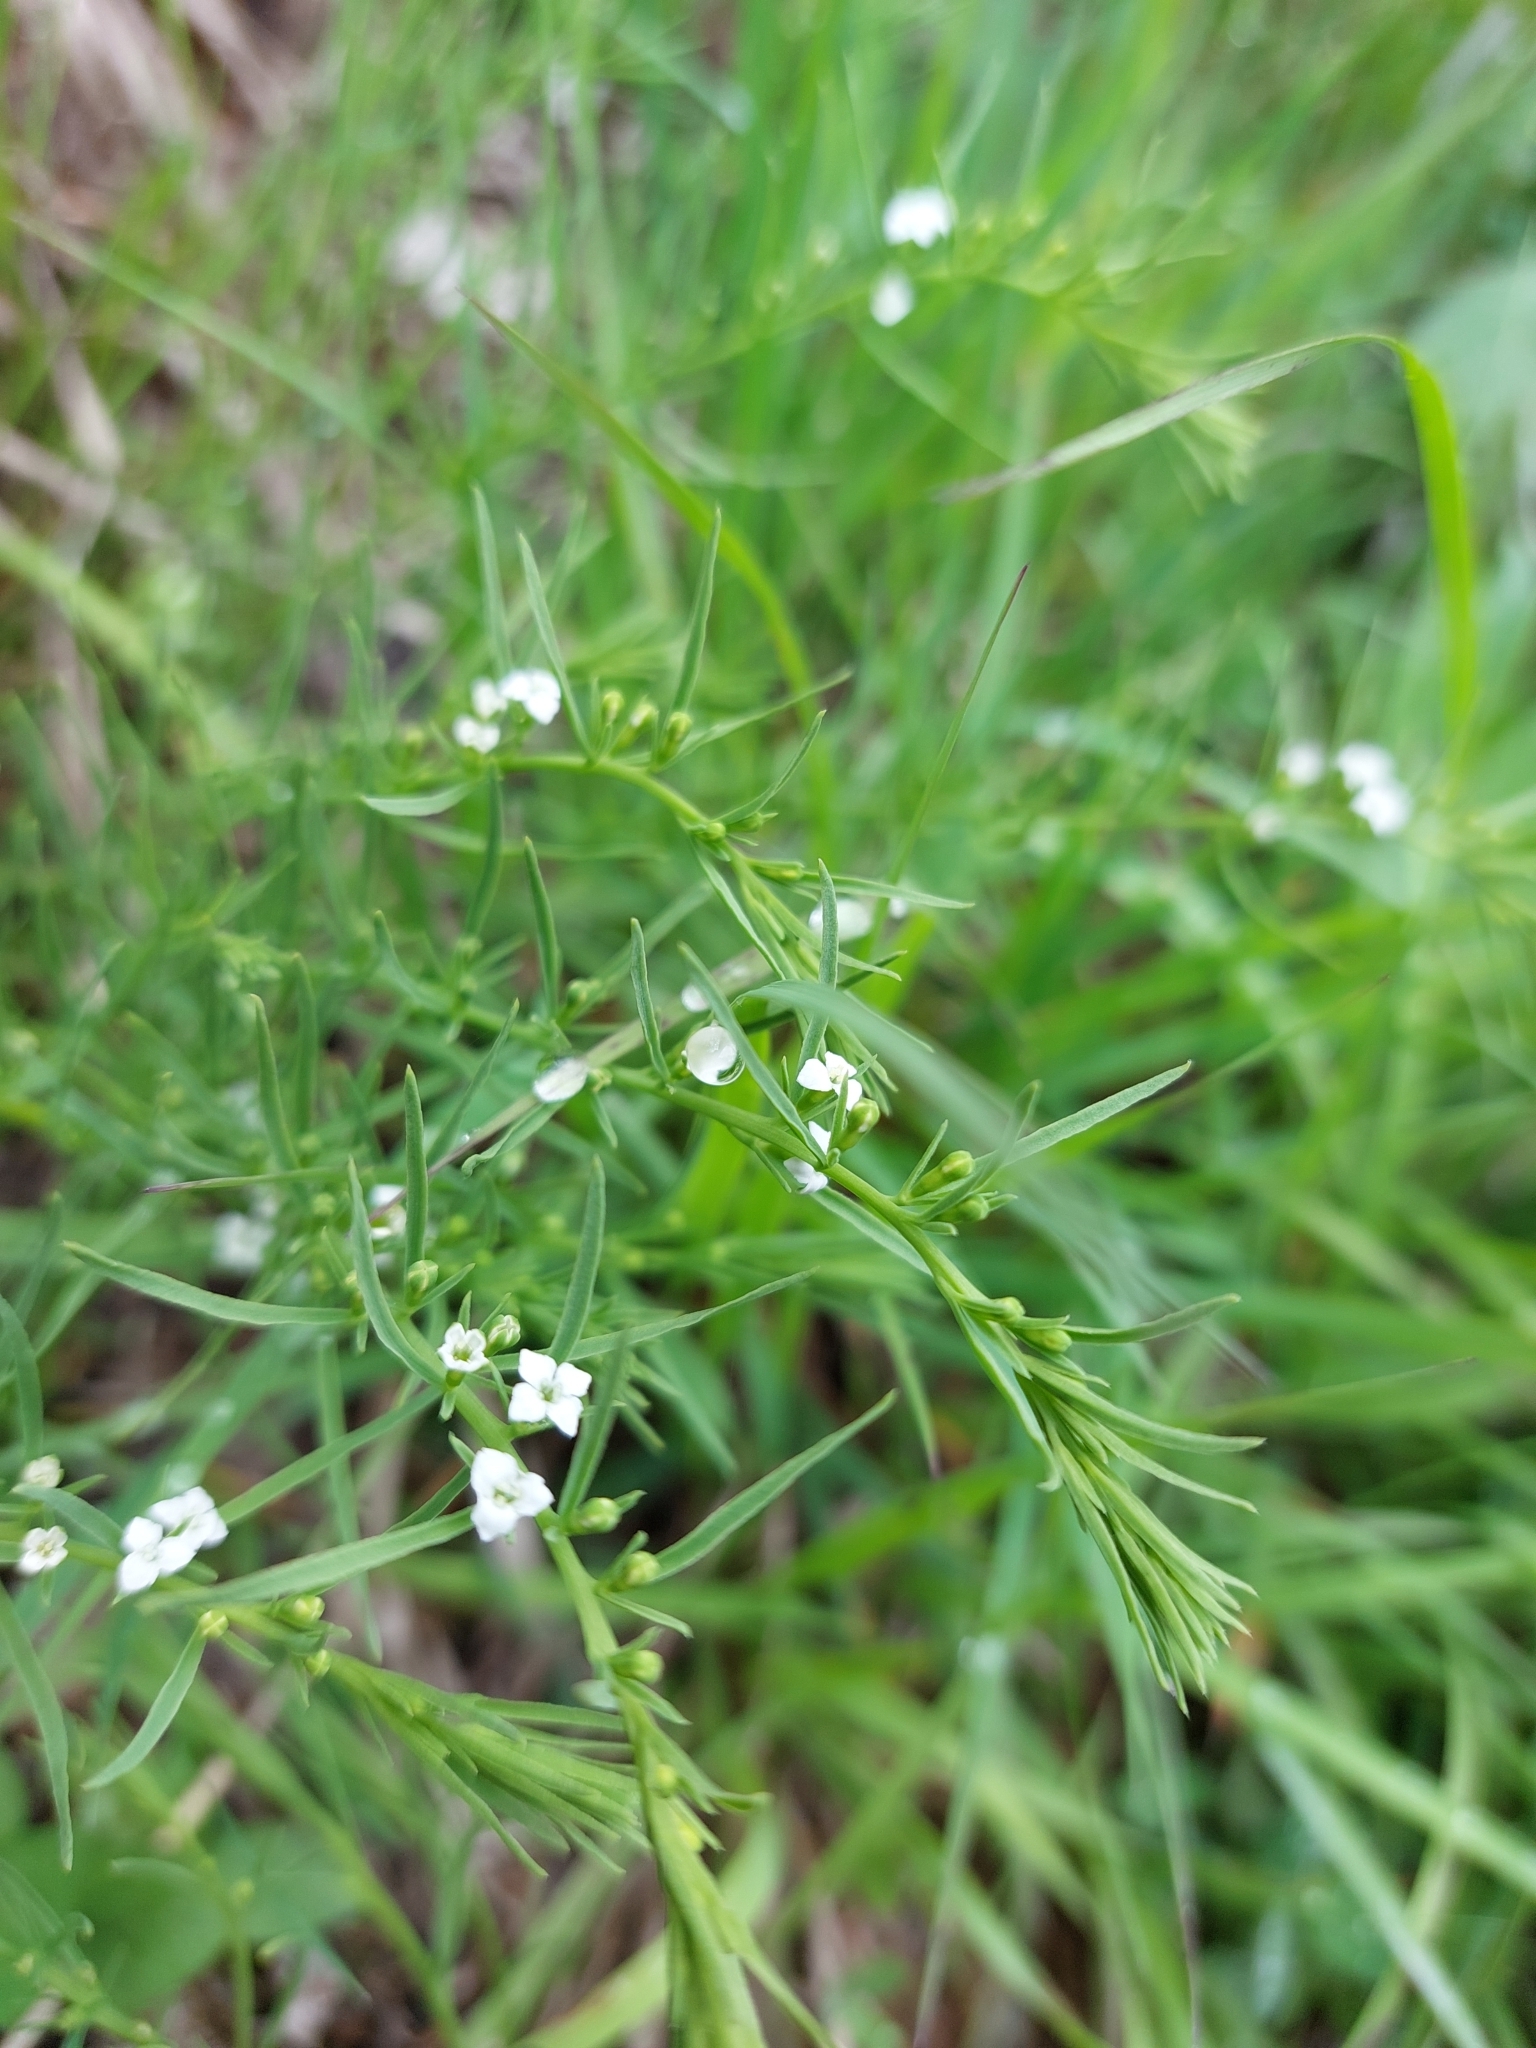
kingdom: Plantae
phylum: Tracheophyta
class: Magnoliopsida
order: Santalales
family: Thesiaceae
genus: Thesium
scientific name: Thesium alpinum
